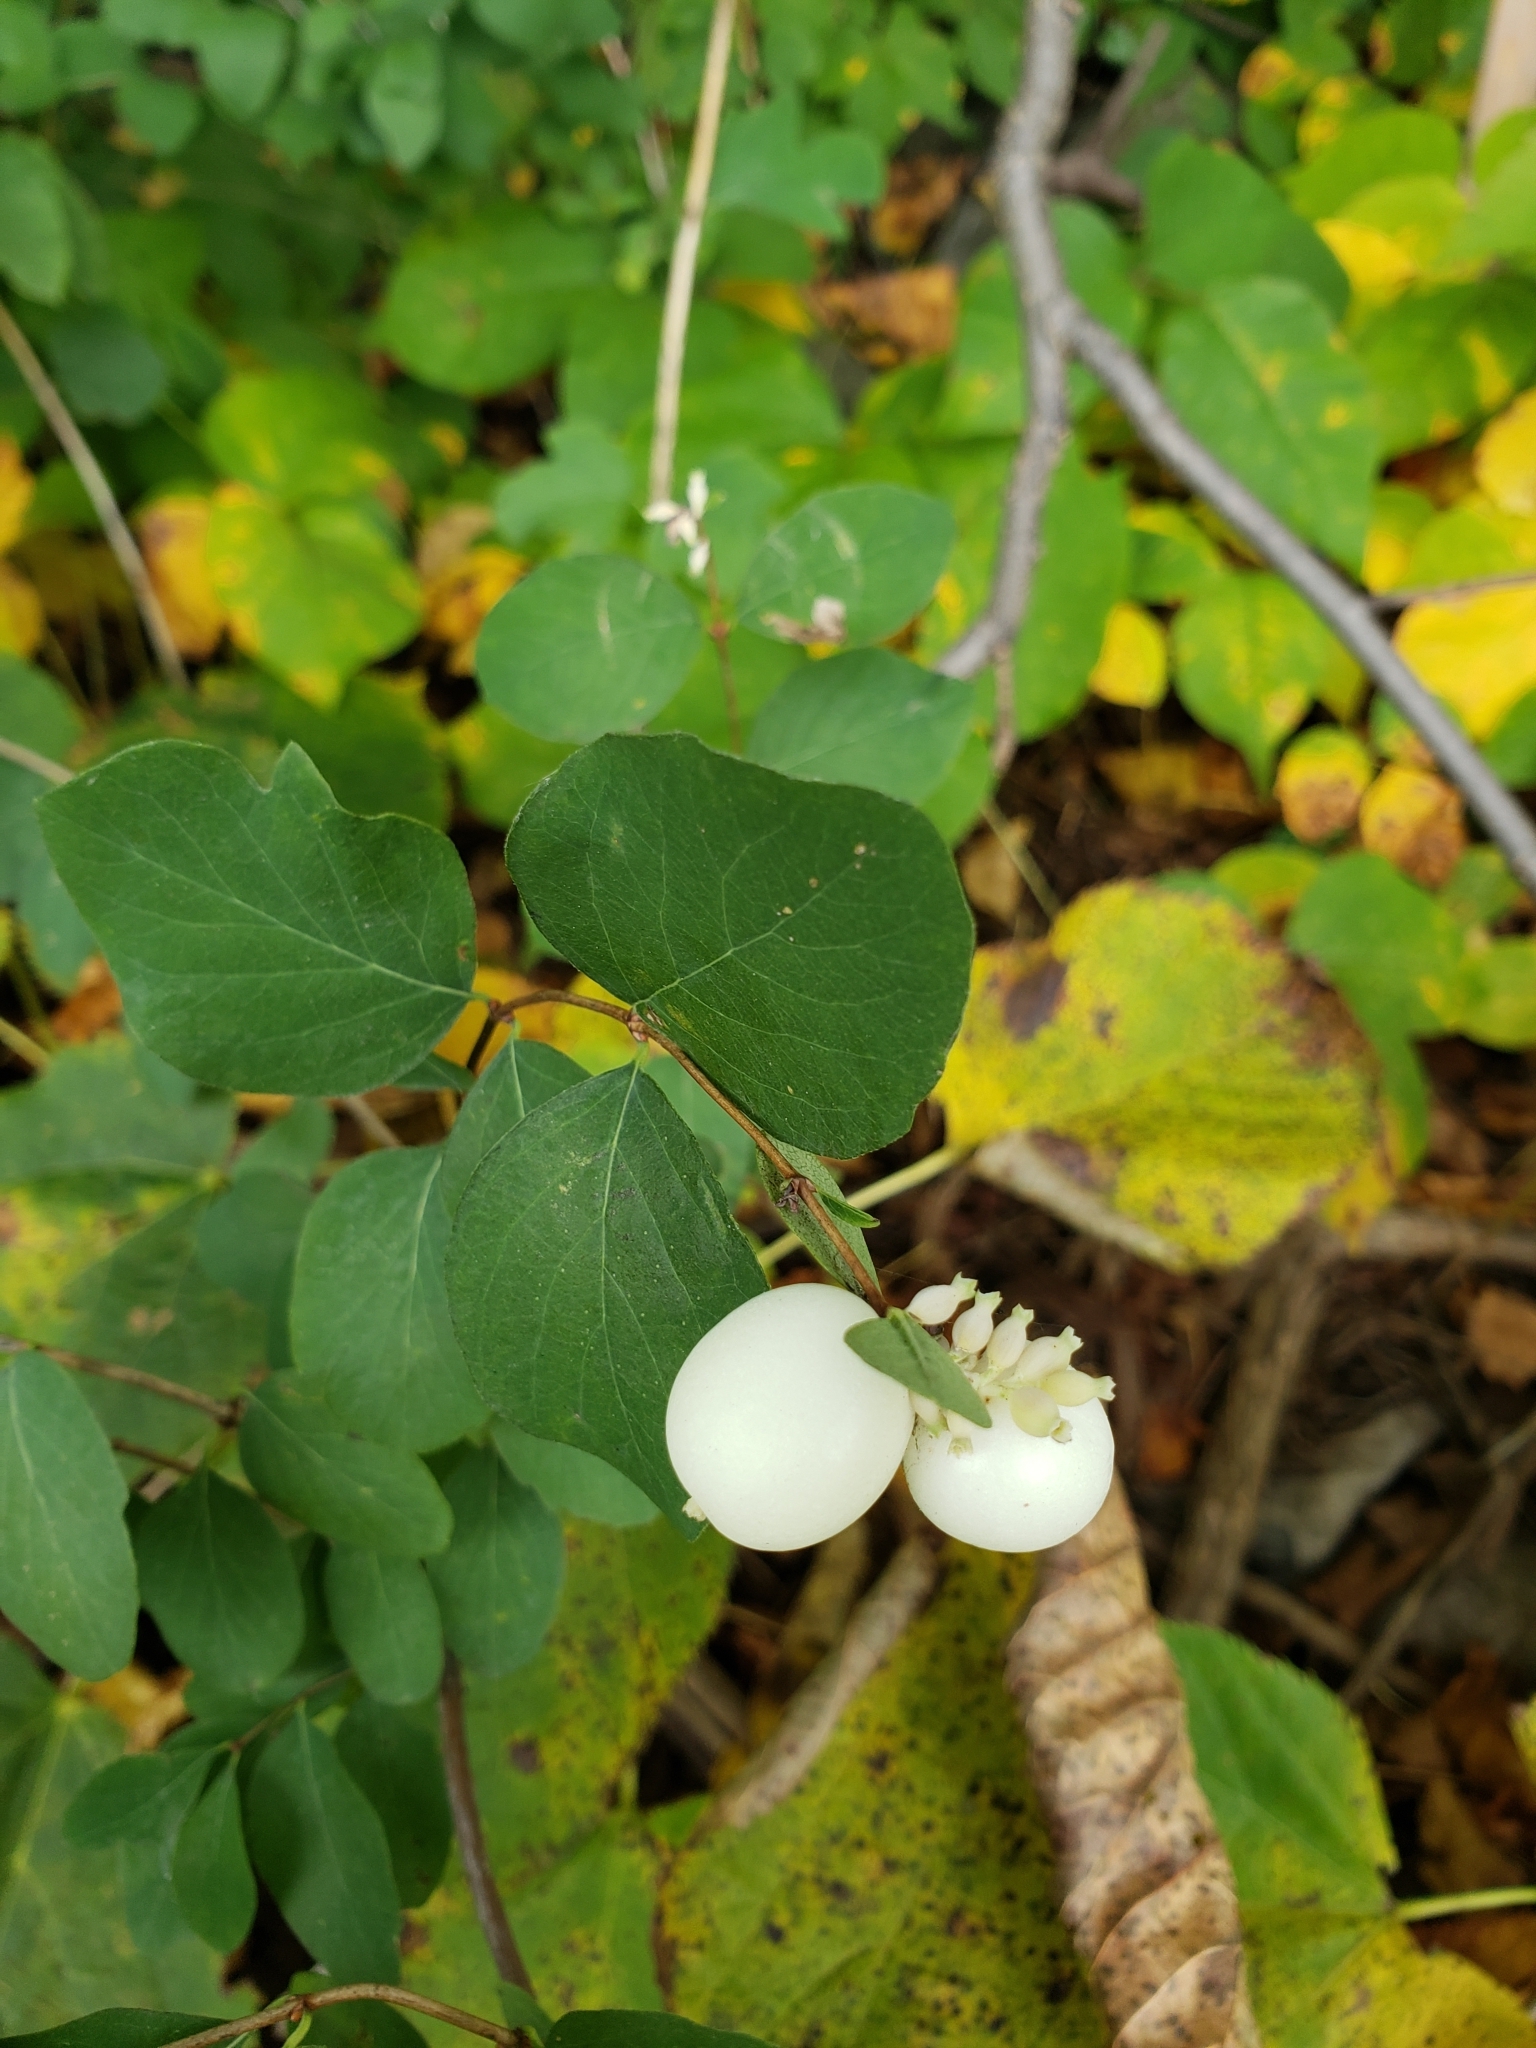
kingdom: Plantae
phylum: Tracheophyta
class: Magnoliopsida
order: Dipsacales
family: Caprifoliaceae
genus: Symphoricarpos
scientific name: Symphoricarpos albus
